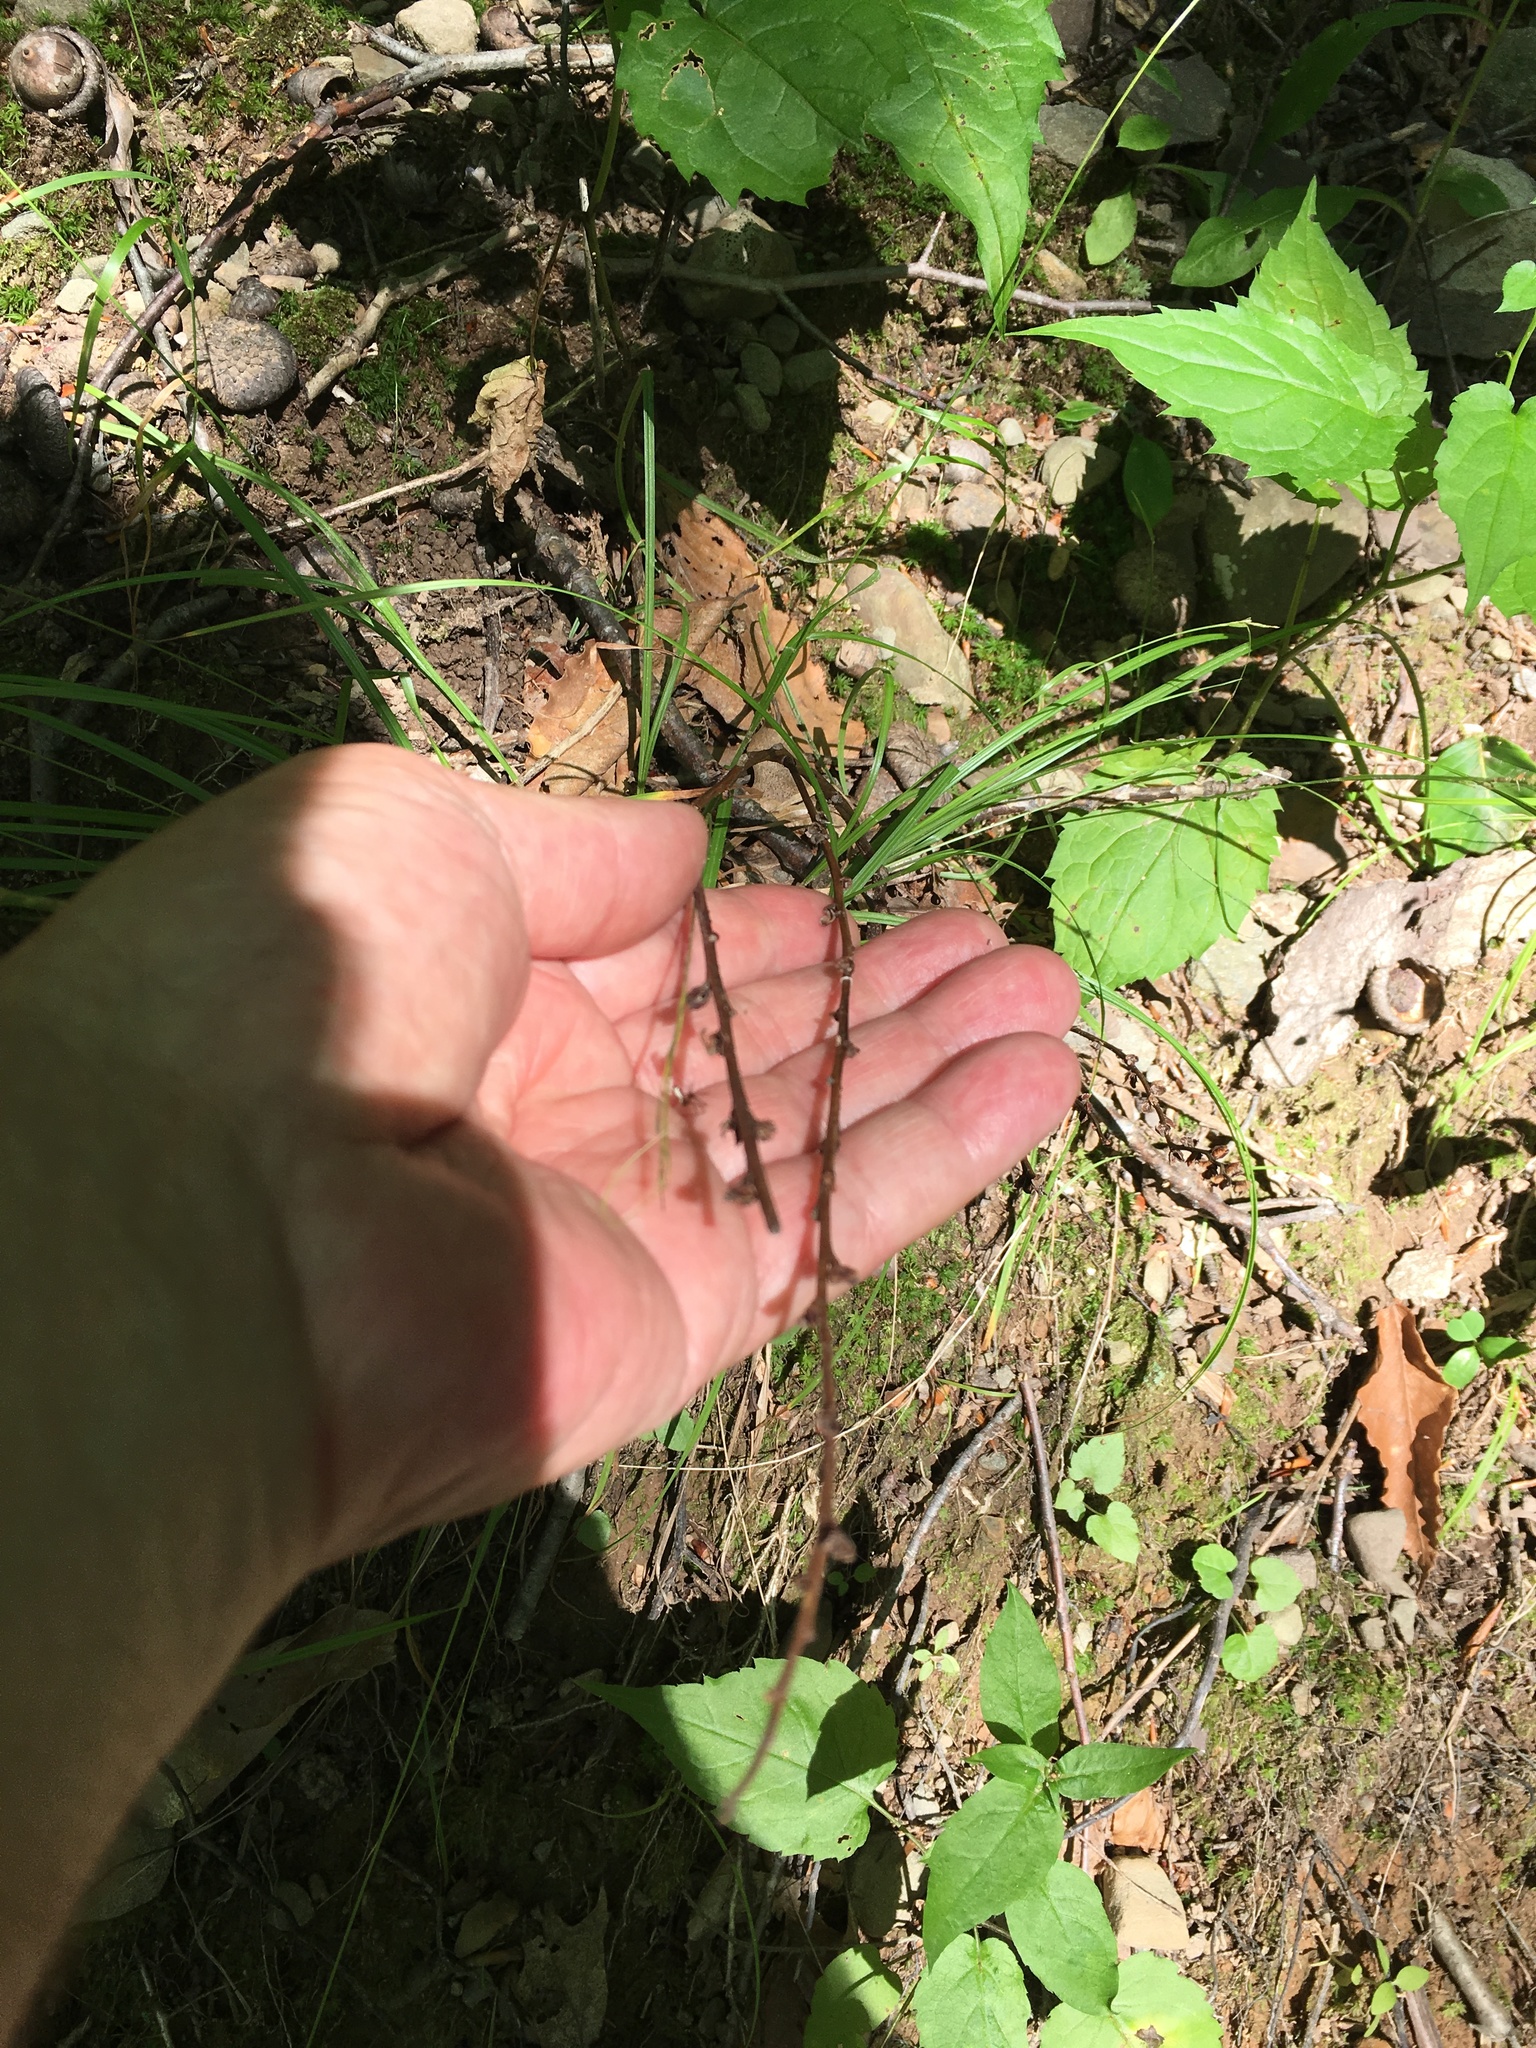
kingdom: Plantae
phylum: Tracheophyta
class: Magnoliopsida
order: Lamiales
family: Orobanchaceae
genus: Epifagus
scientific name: Epifagus virginiana
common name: Beechdrops
